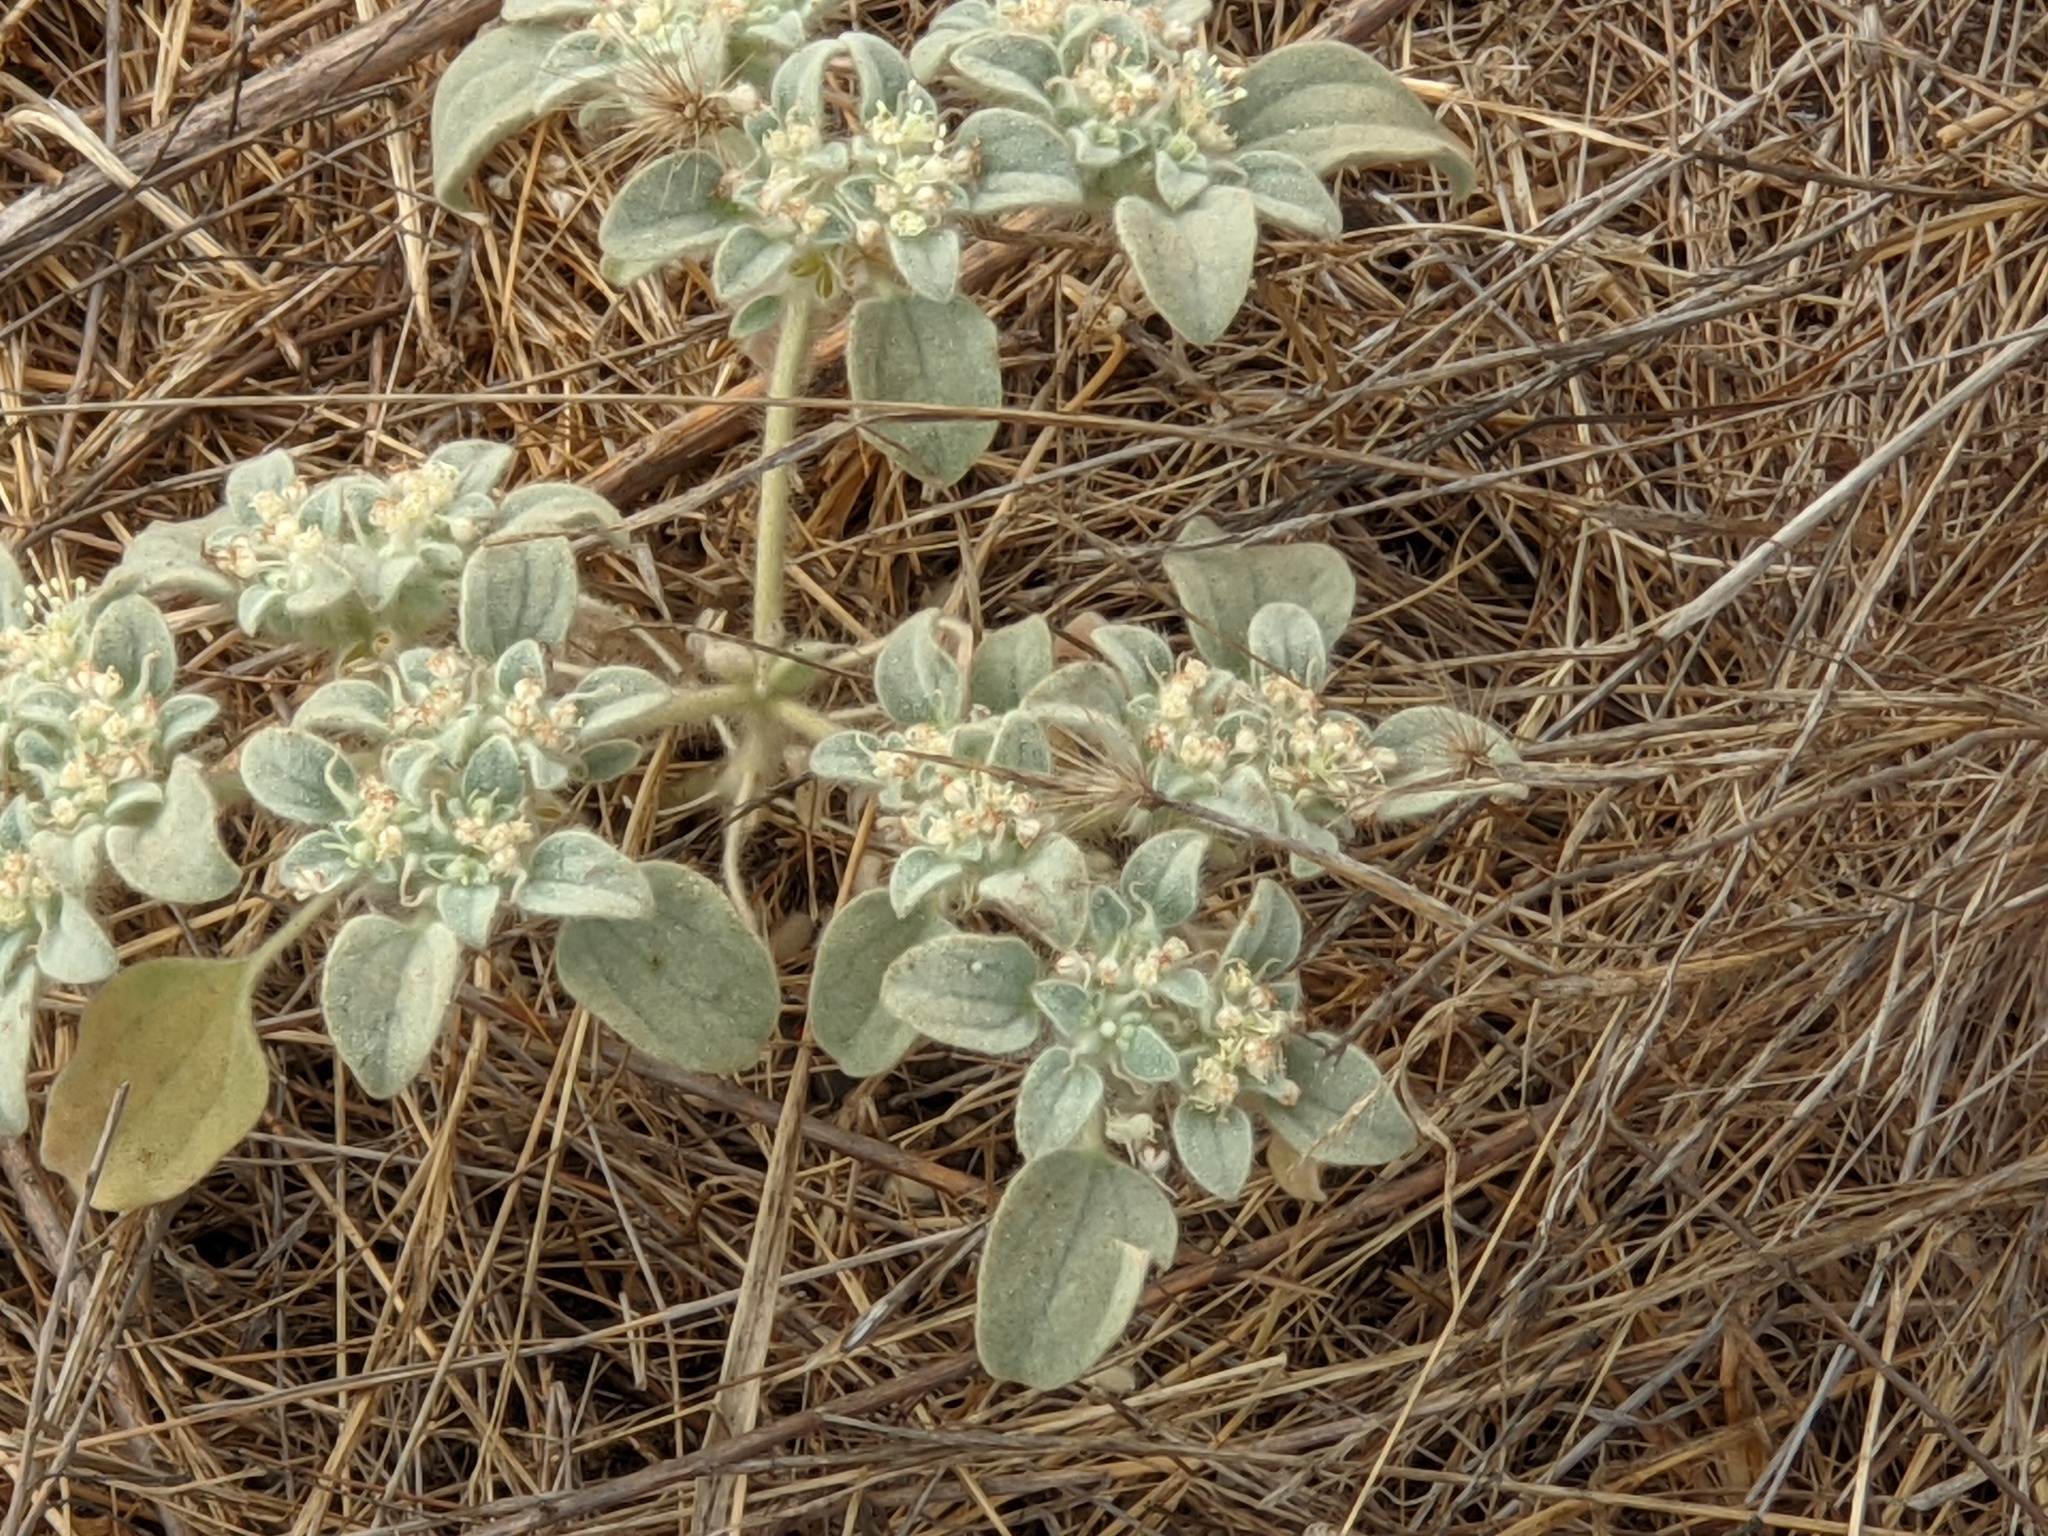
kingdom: Plantae
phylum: Tracheophyta
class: Magnoliopsida
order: Malpighiales
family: Euphorbiaceae
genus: Croton
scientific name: Croton setiger
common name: Dove weed
